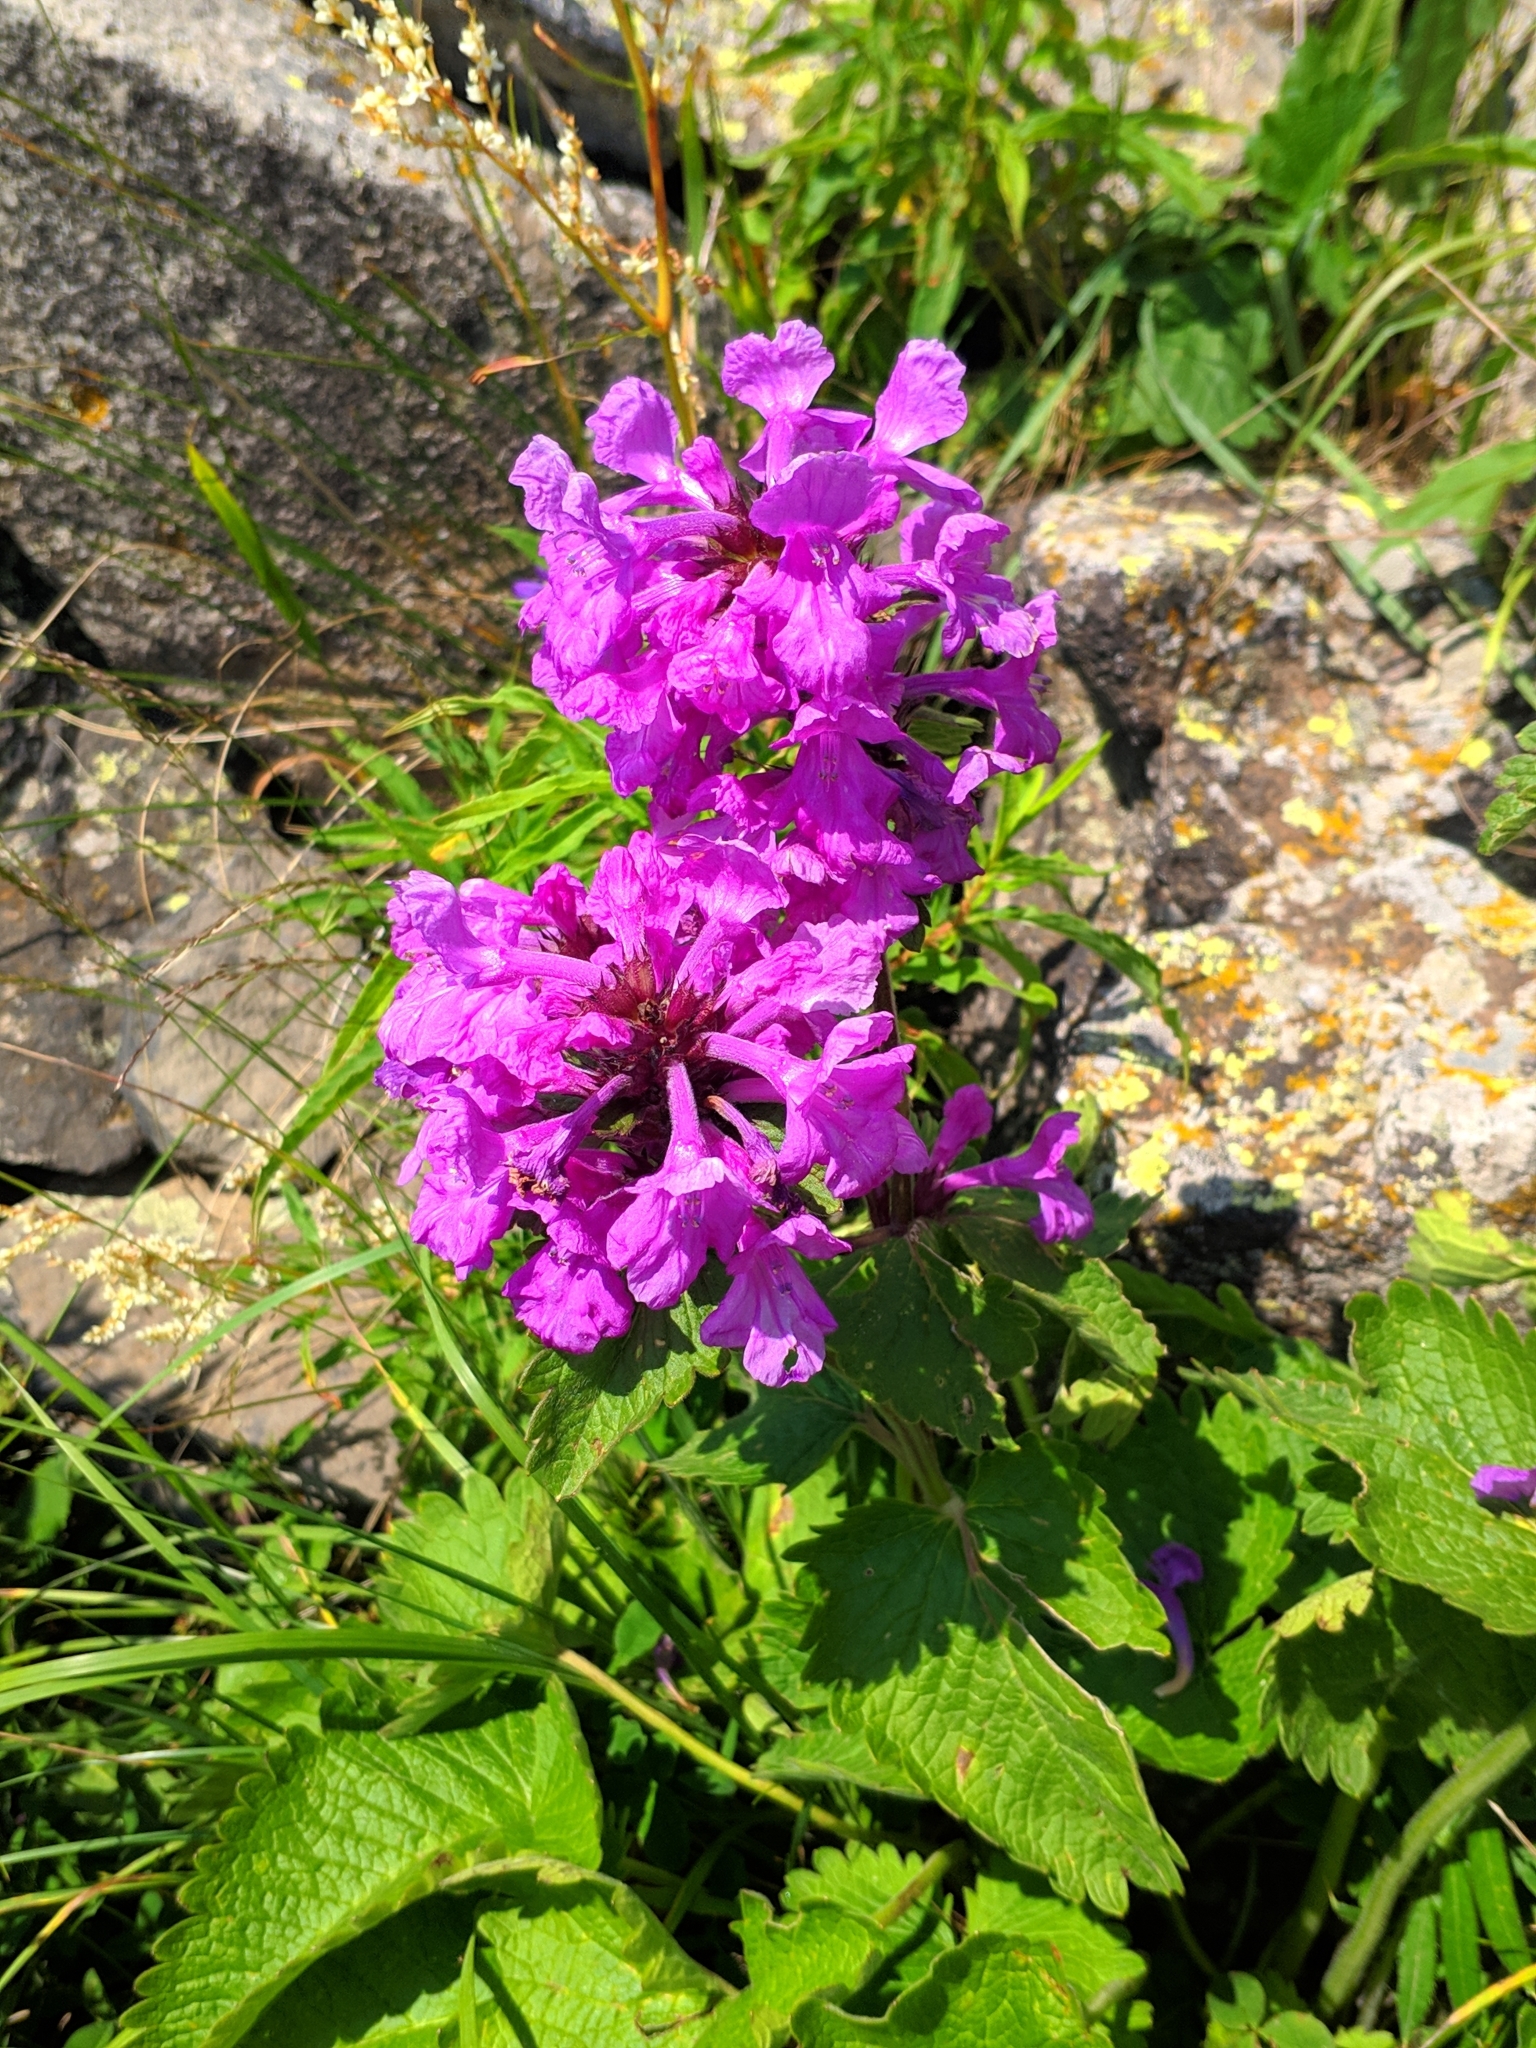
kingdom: Plantae
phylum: Tracheophyta
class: Magnoliopsida
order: Lamiales
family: Lamiaceae
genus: Betonica
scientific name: Betonica macrantha
